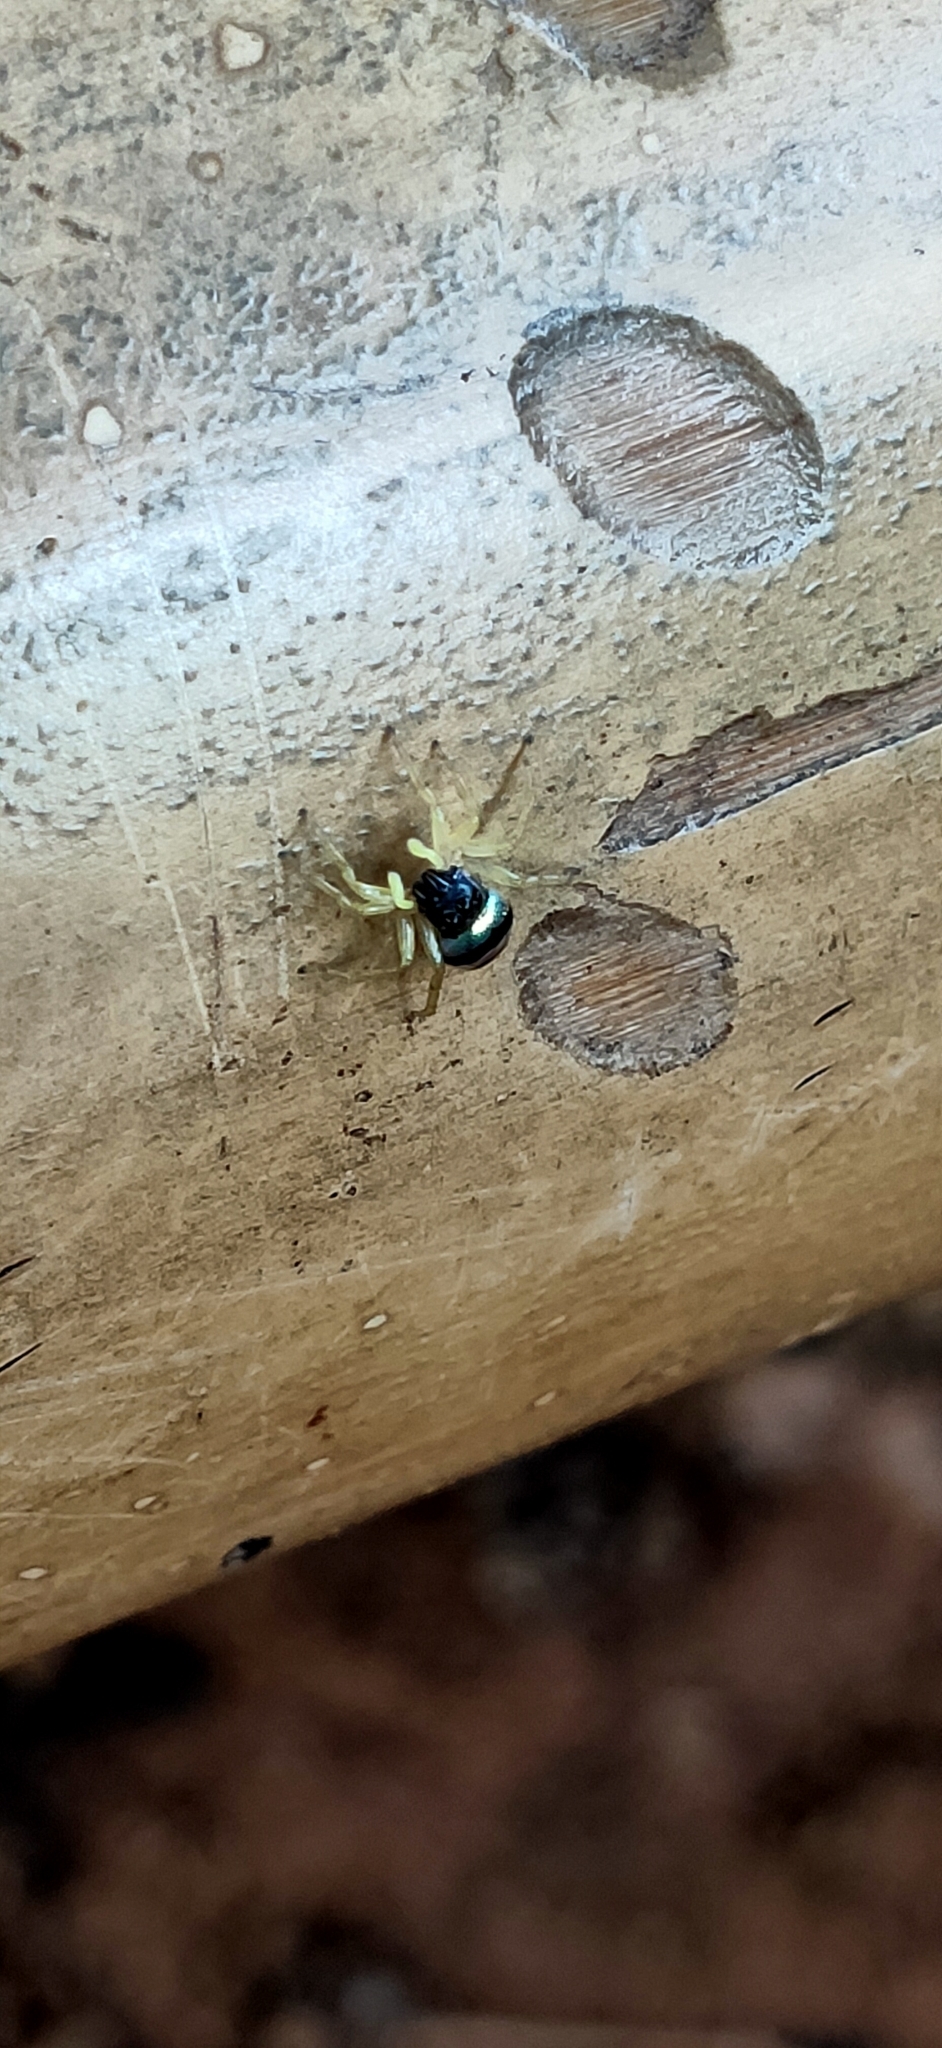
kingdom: Animalia
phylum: Arthropoda
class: Arachnida
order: Araneae
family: Salticidae
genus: Phintella
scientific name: Phintella vittata
